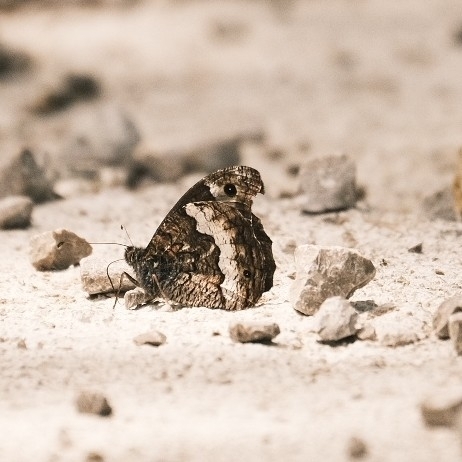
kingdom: Animalia
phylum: Arthropoda
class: Insecta
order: Lepidoptera
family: Nymphalidae
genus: Hipparchia
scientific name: Hipparchia fagi
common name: Woodland grayling
